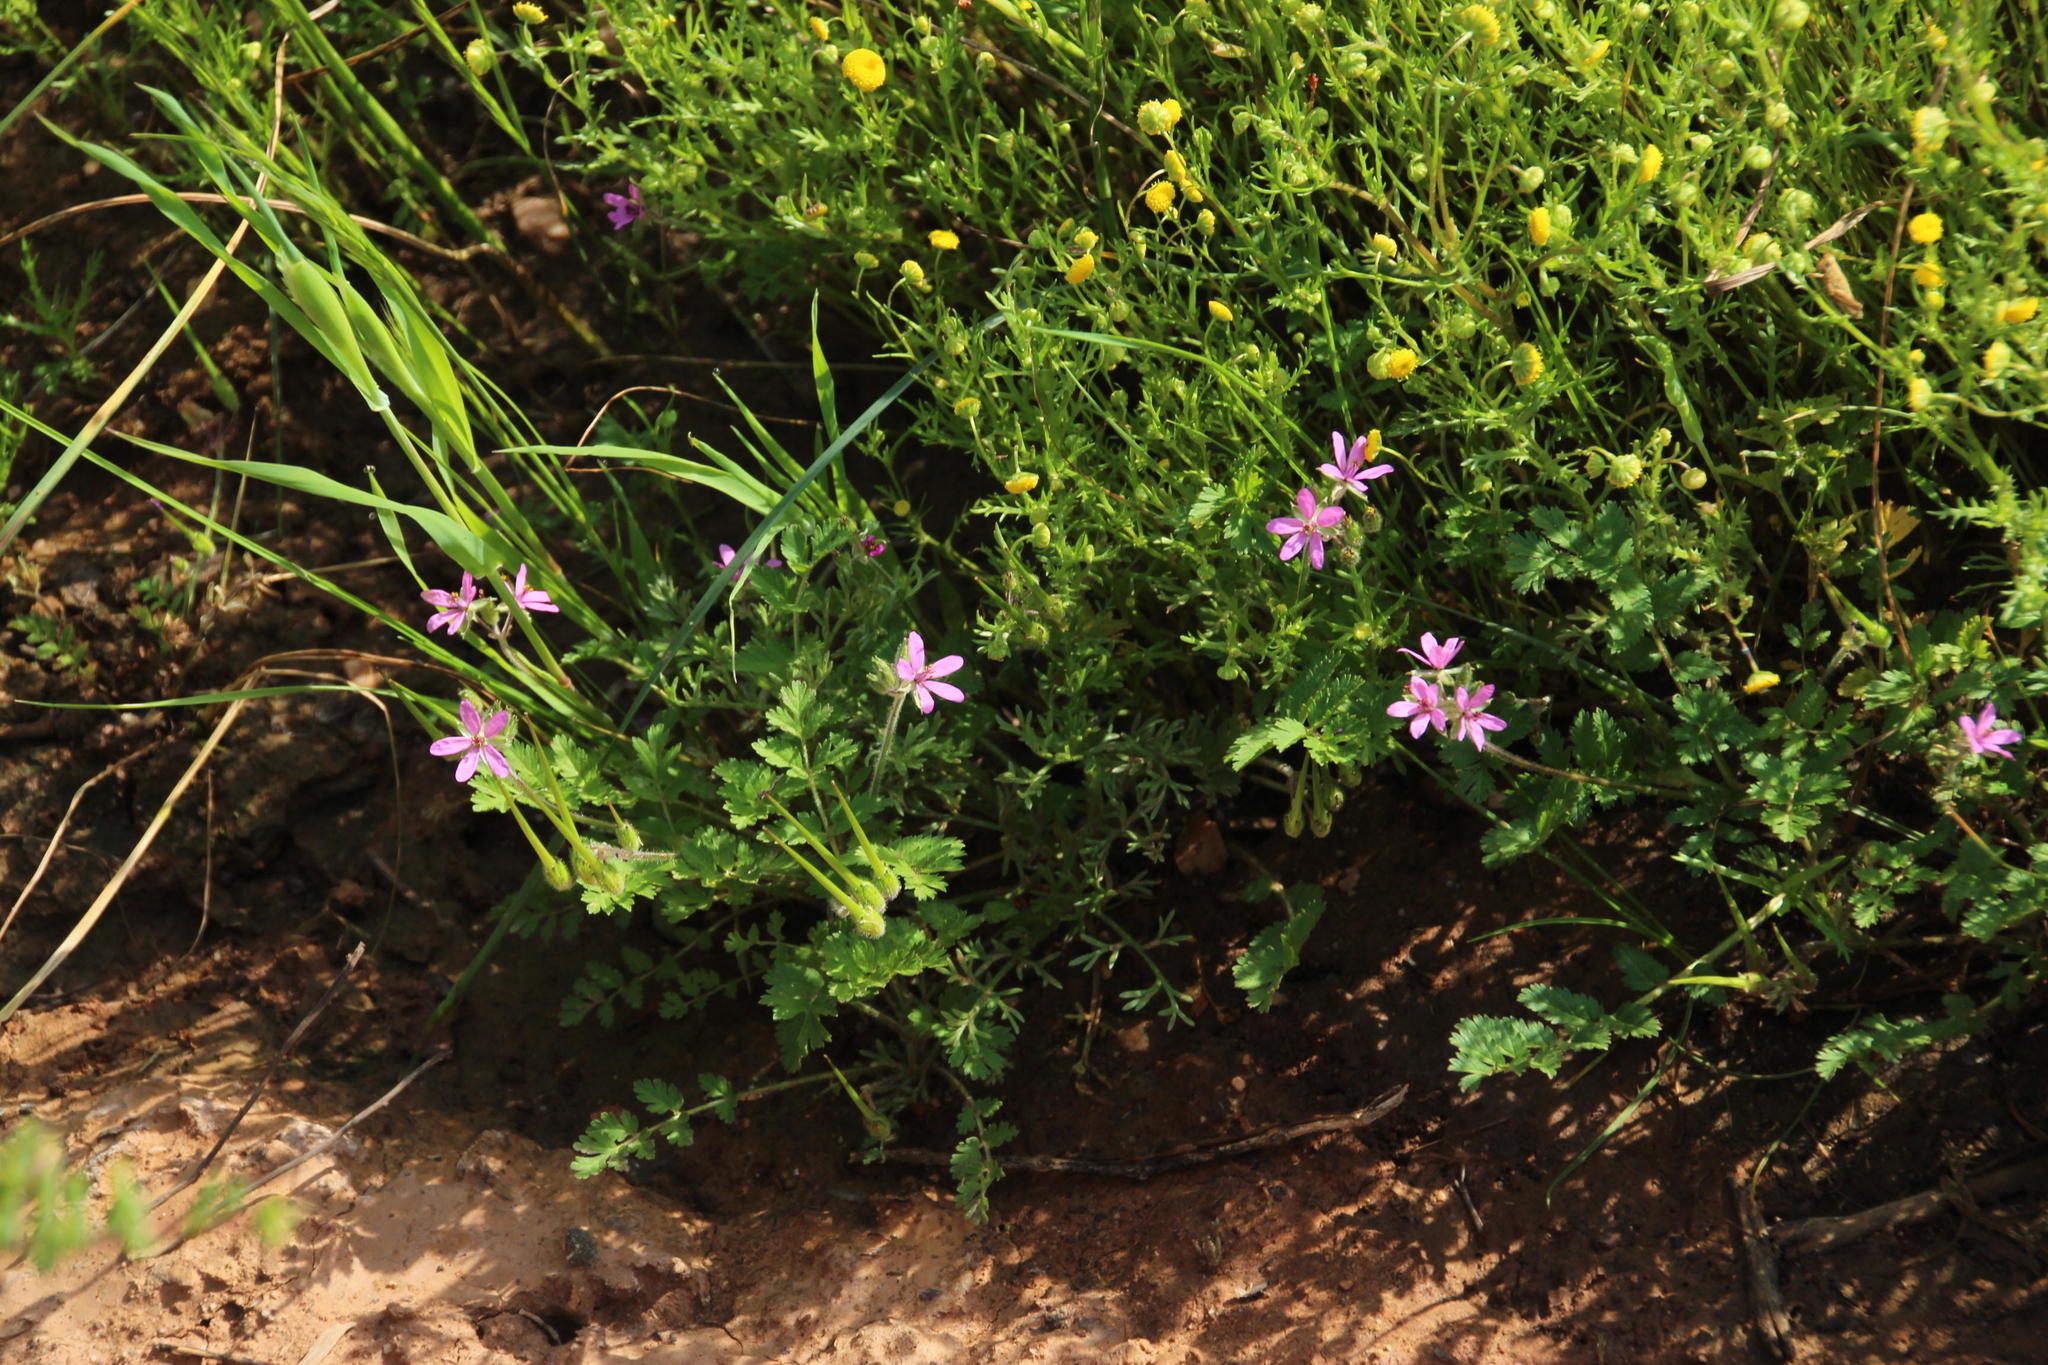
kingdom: Plantae
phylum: Tracheophyta
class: Magnoliopsida
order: Geraniales
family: Geraniaceae
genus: Erodium
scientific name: Erodium moschatum
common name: Musk stork's-bill
